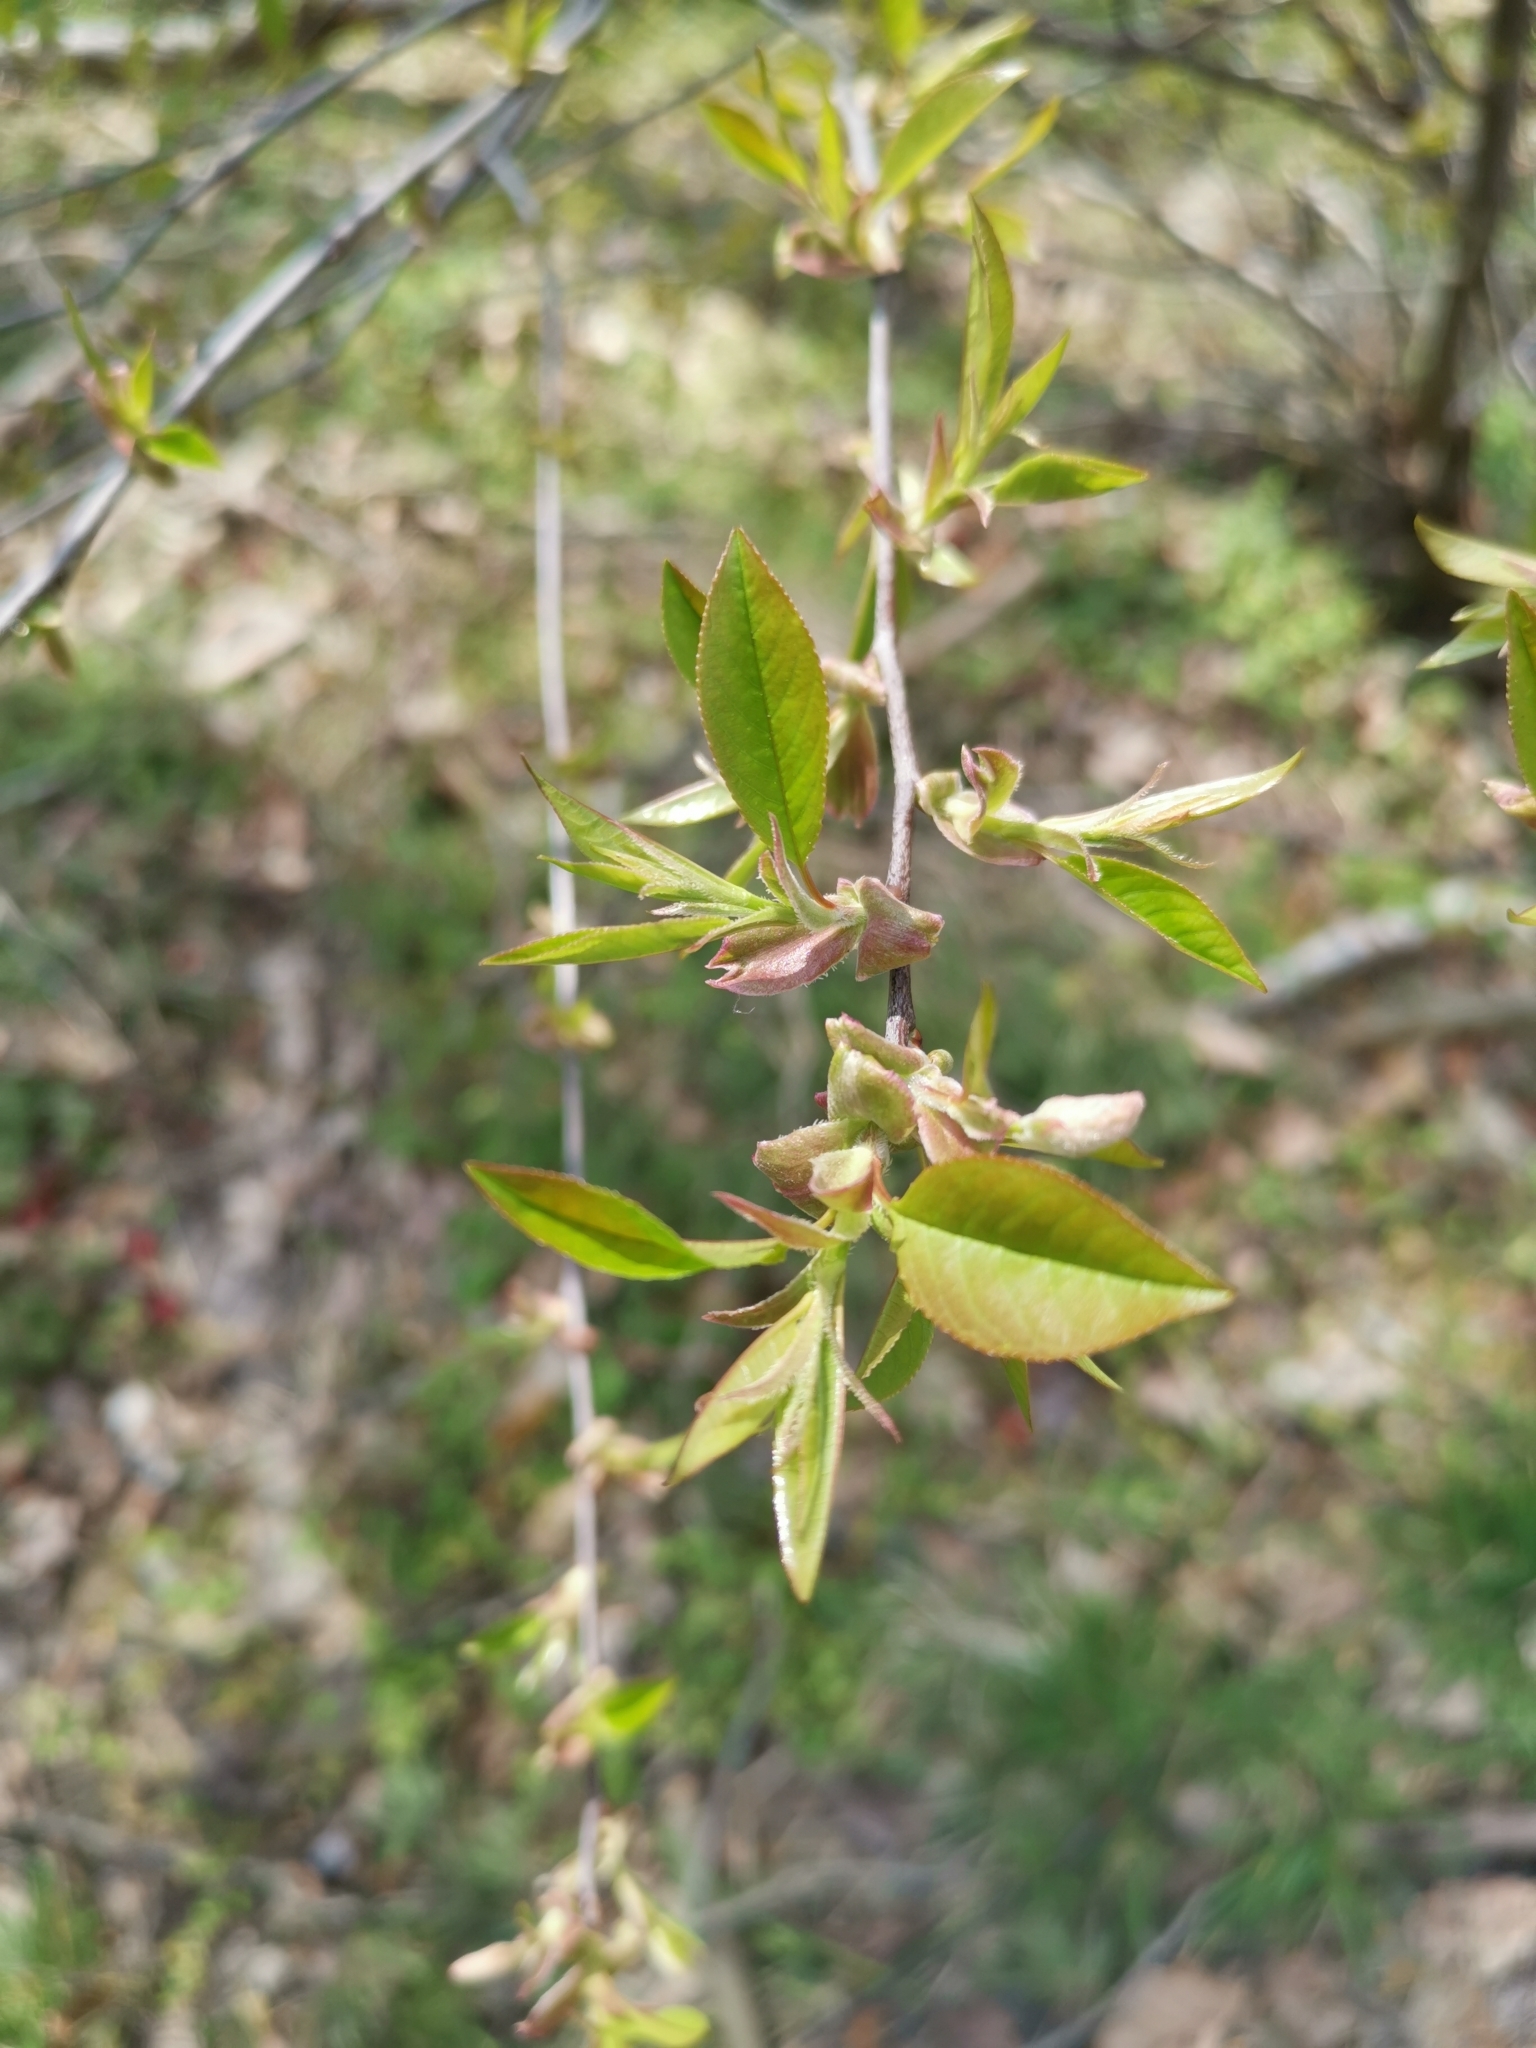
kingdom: Plantae
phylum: Tracheophyta
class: Magnoliopsida
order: Rosales
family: Rosaceae
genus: Prunus
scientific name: Prunus serotina
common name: Black cherry
